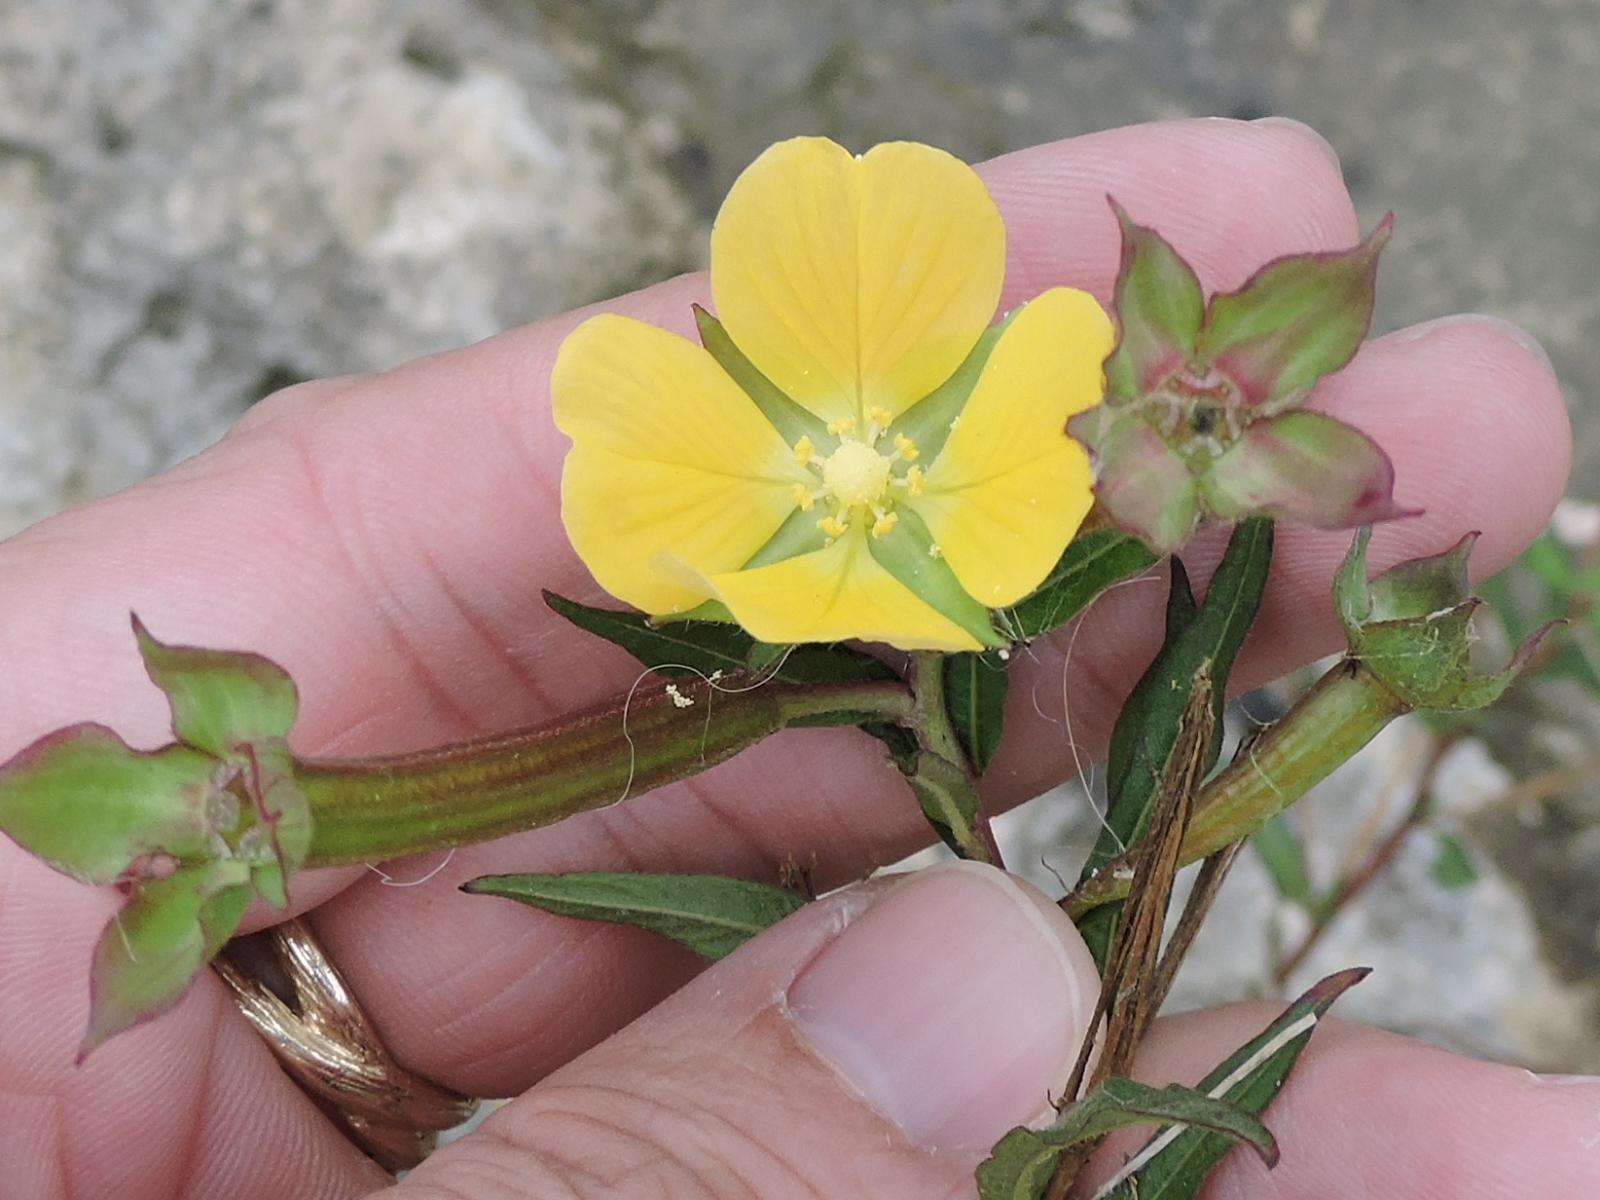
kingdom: Plantae
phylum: Tracheophyta
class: Magnoliopsida
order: Myrtales
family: Onagraceae
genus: Ludwigia
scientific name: Ludwigia octovalvis
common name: Water-primrose
